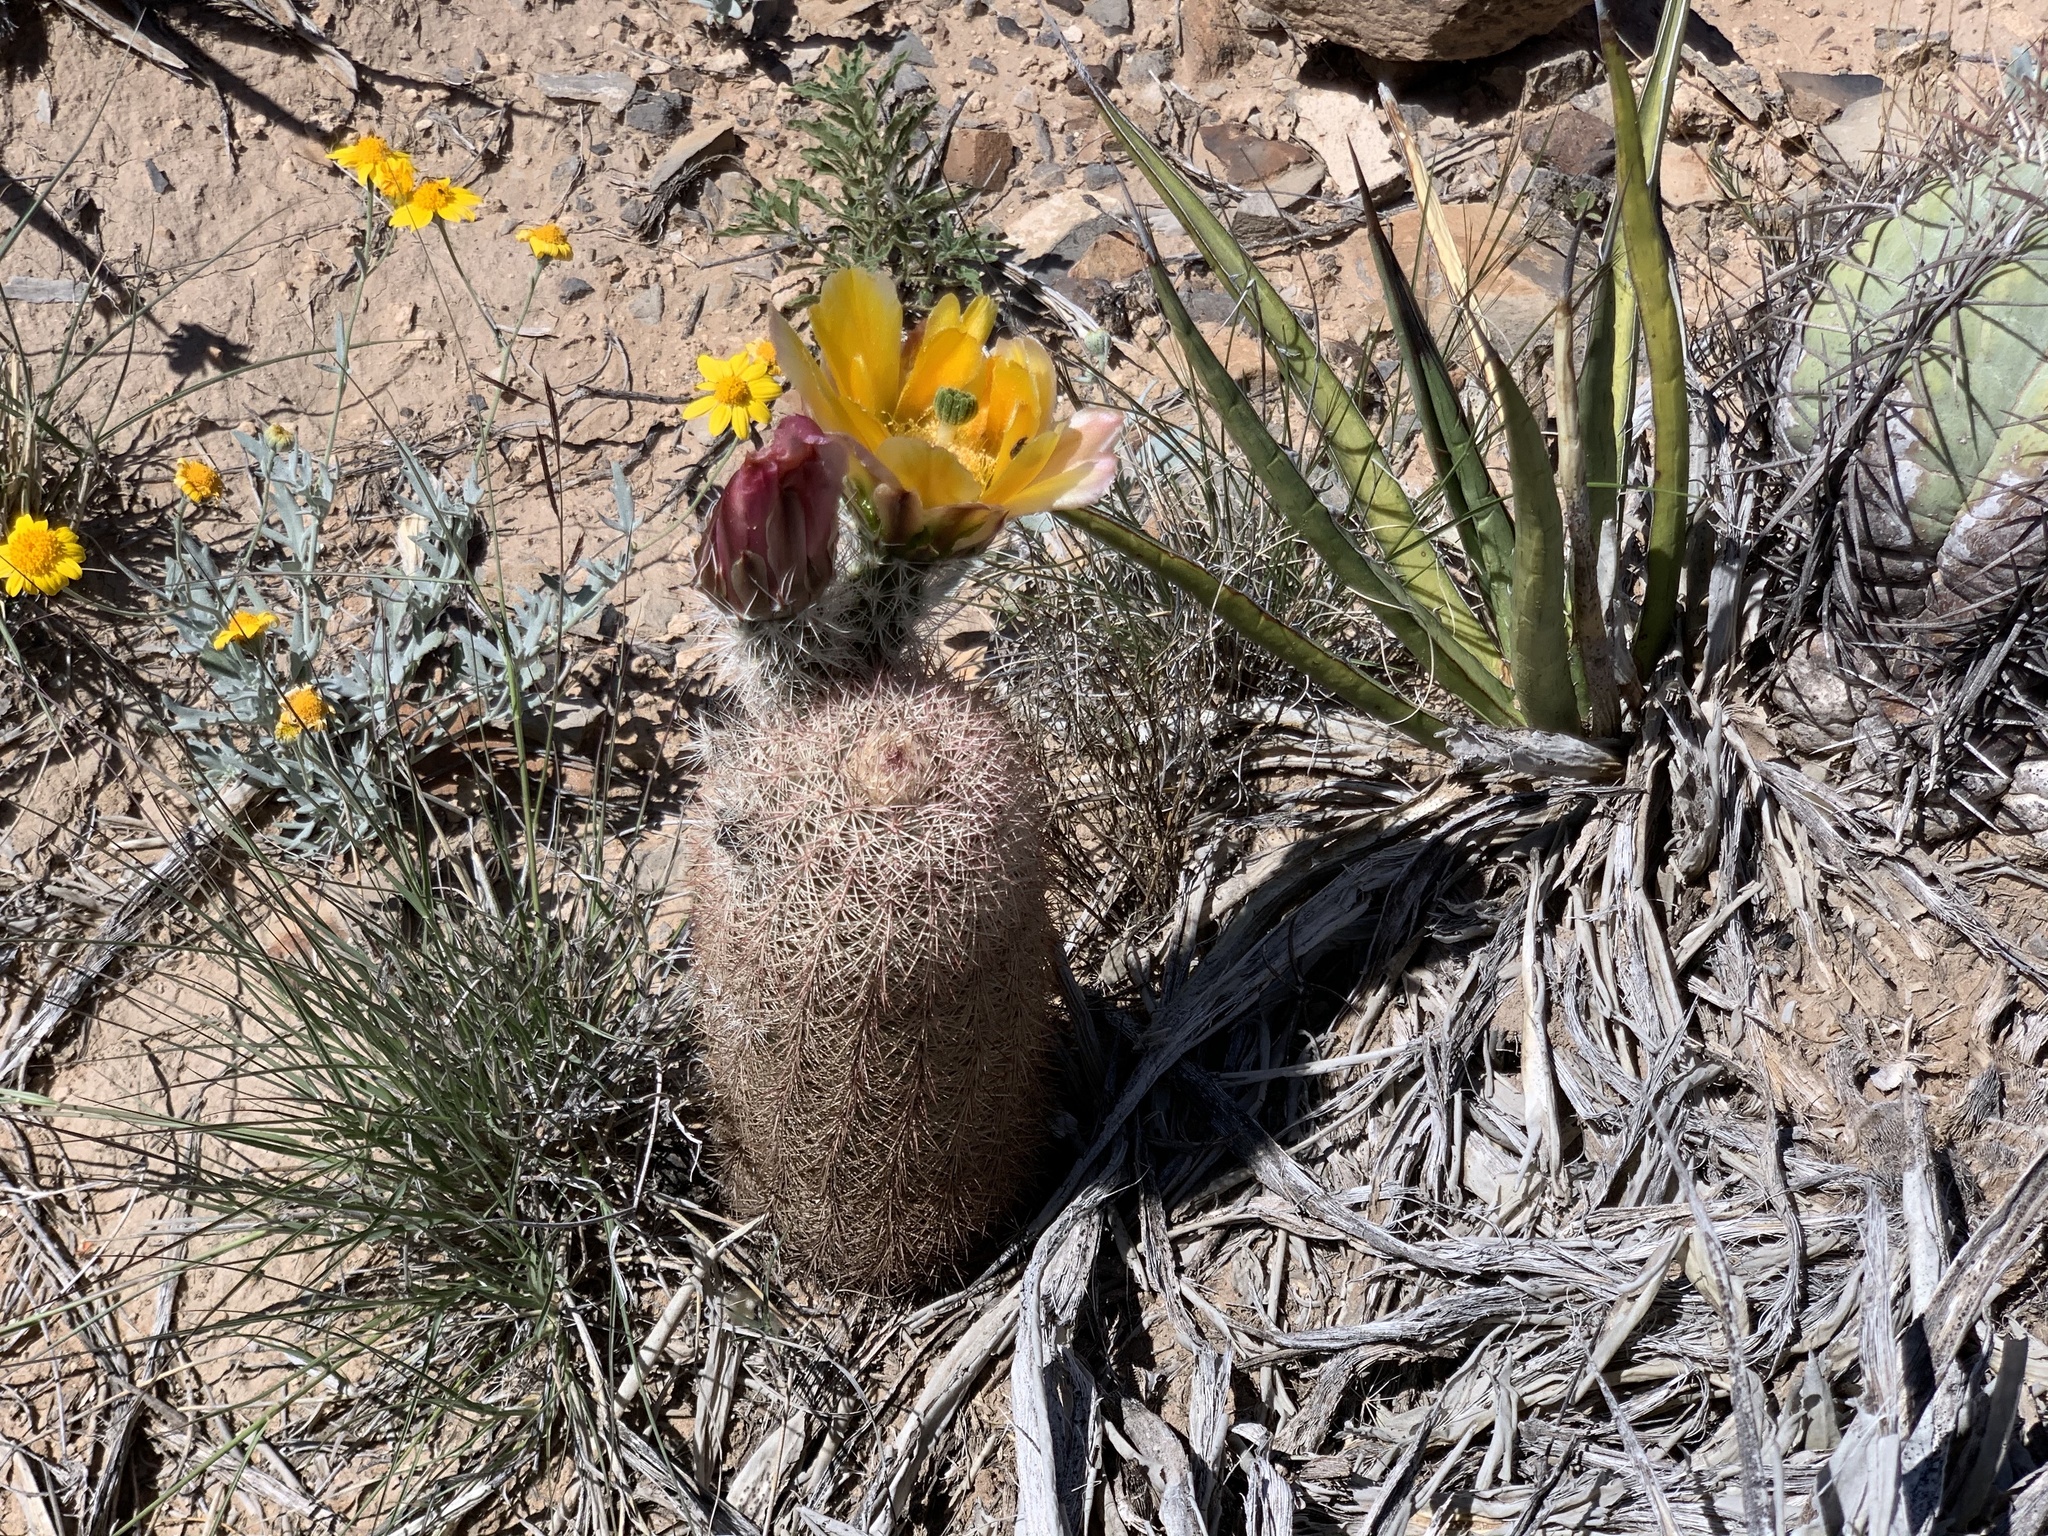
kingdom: Plantae
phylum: Tracheophyta
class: Magnoliopsida
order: Caryophyllales
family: Cactaceae
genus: Echinocereus
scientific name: Echinocereus dasyacanthus
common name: Spiny hedgehog cactus
